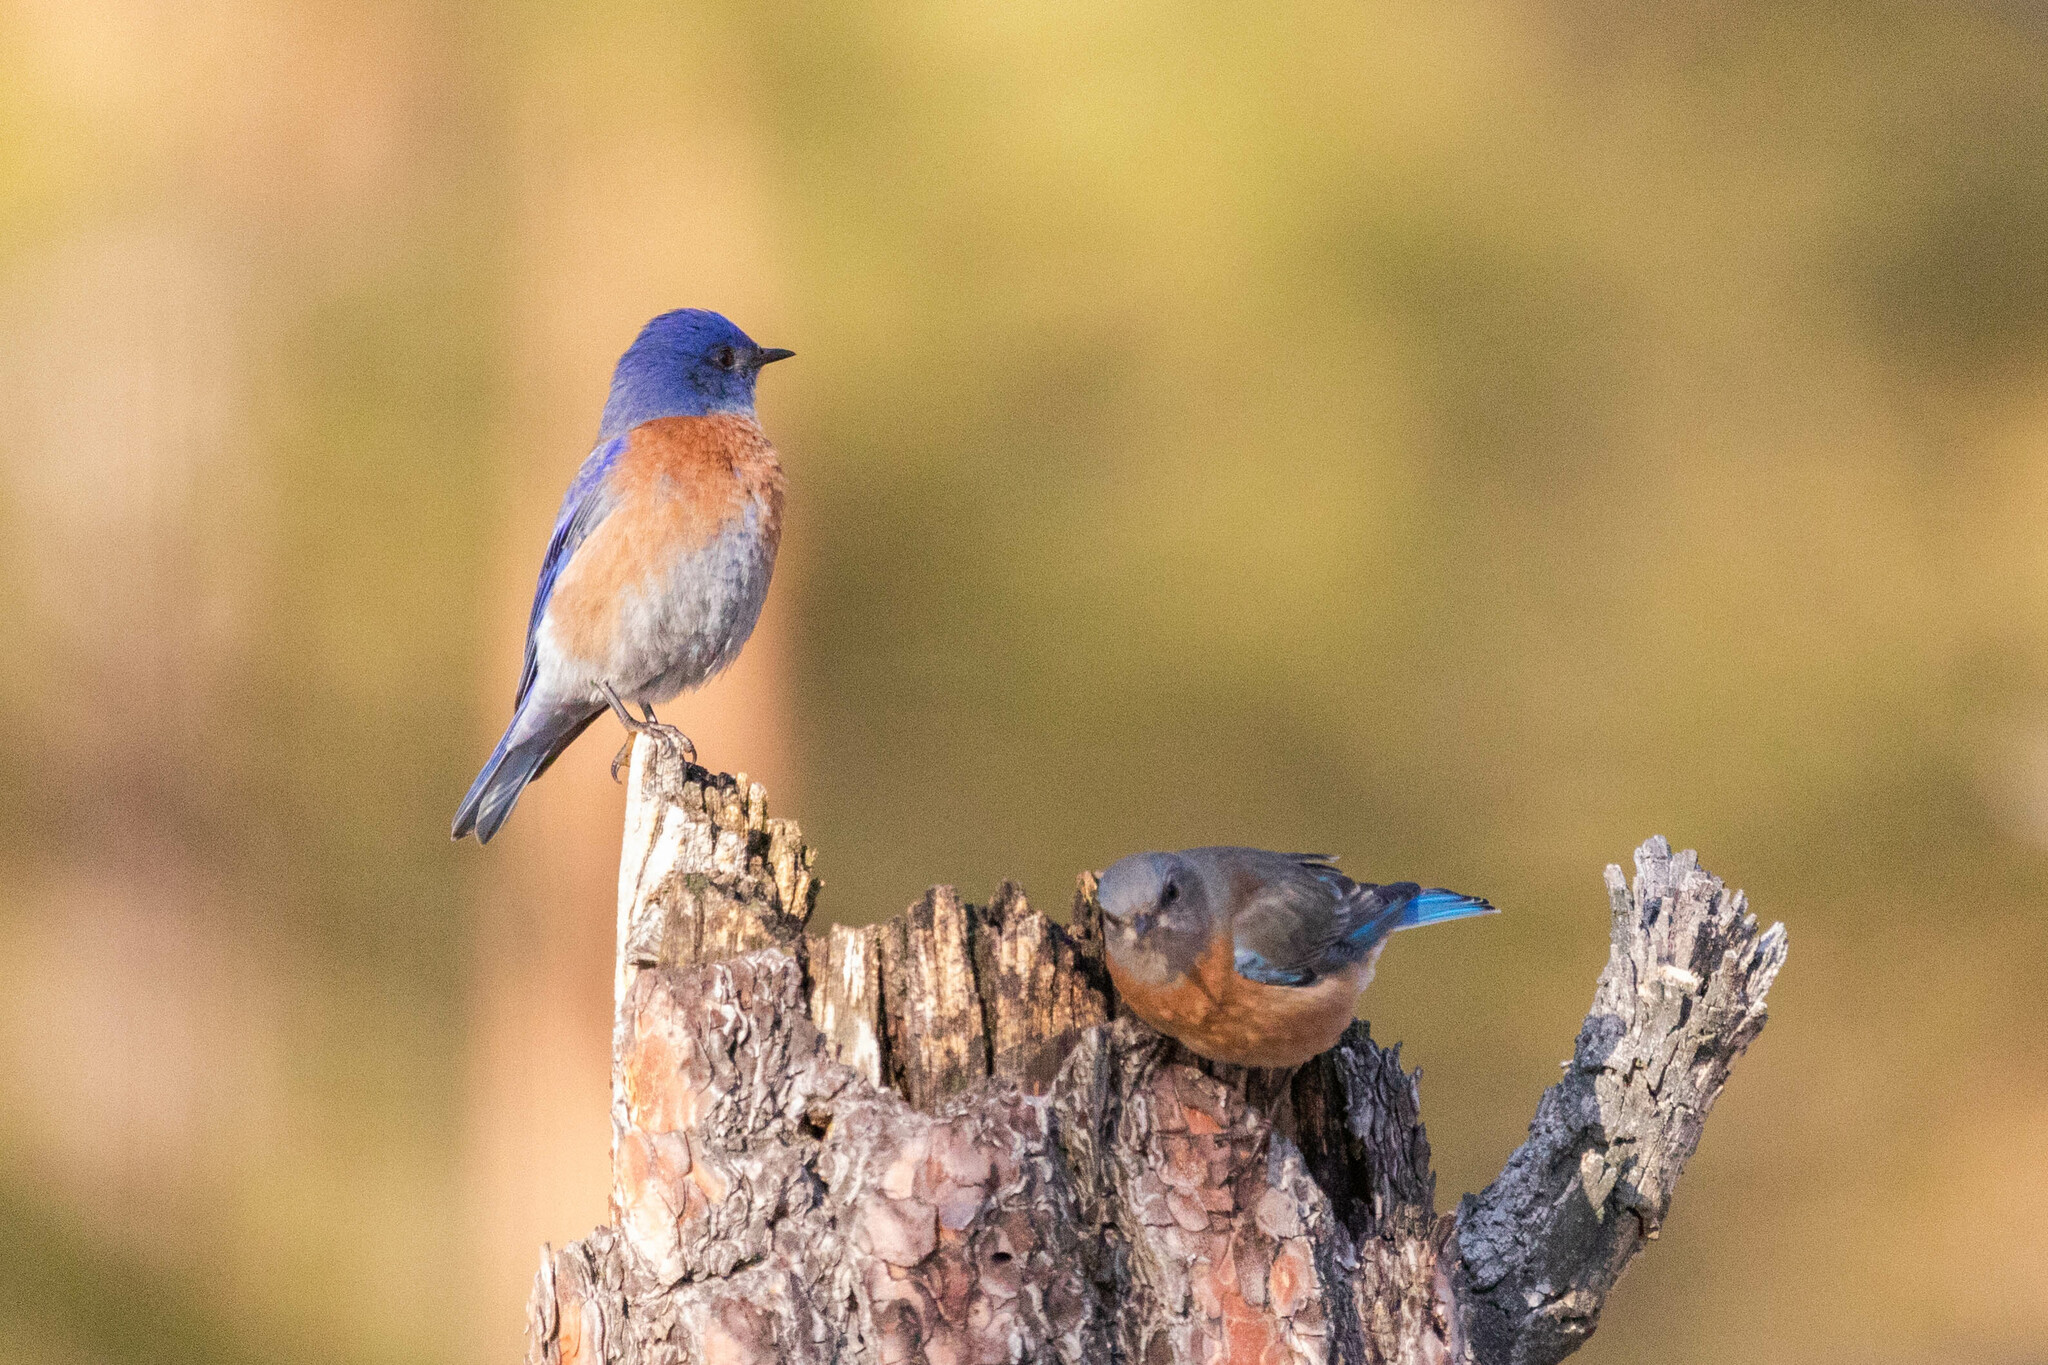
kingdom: Animalia
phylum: Chordata
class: Aves
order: Passeriformes
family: Turdidae
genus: Sialia
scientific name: Sialia mexicana
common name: Western bluebird
